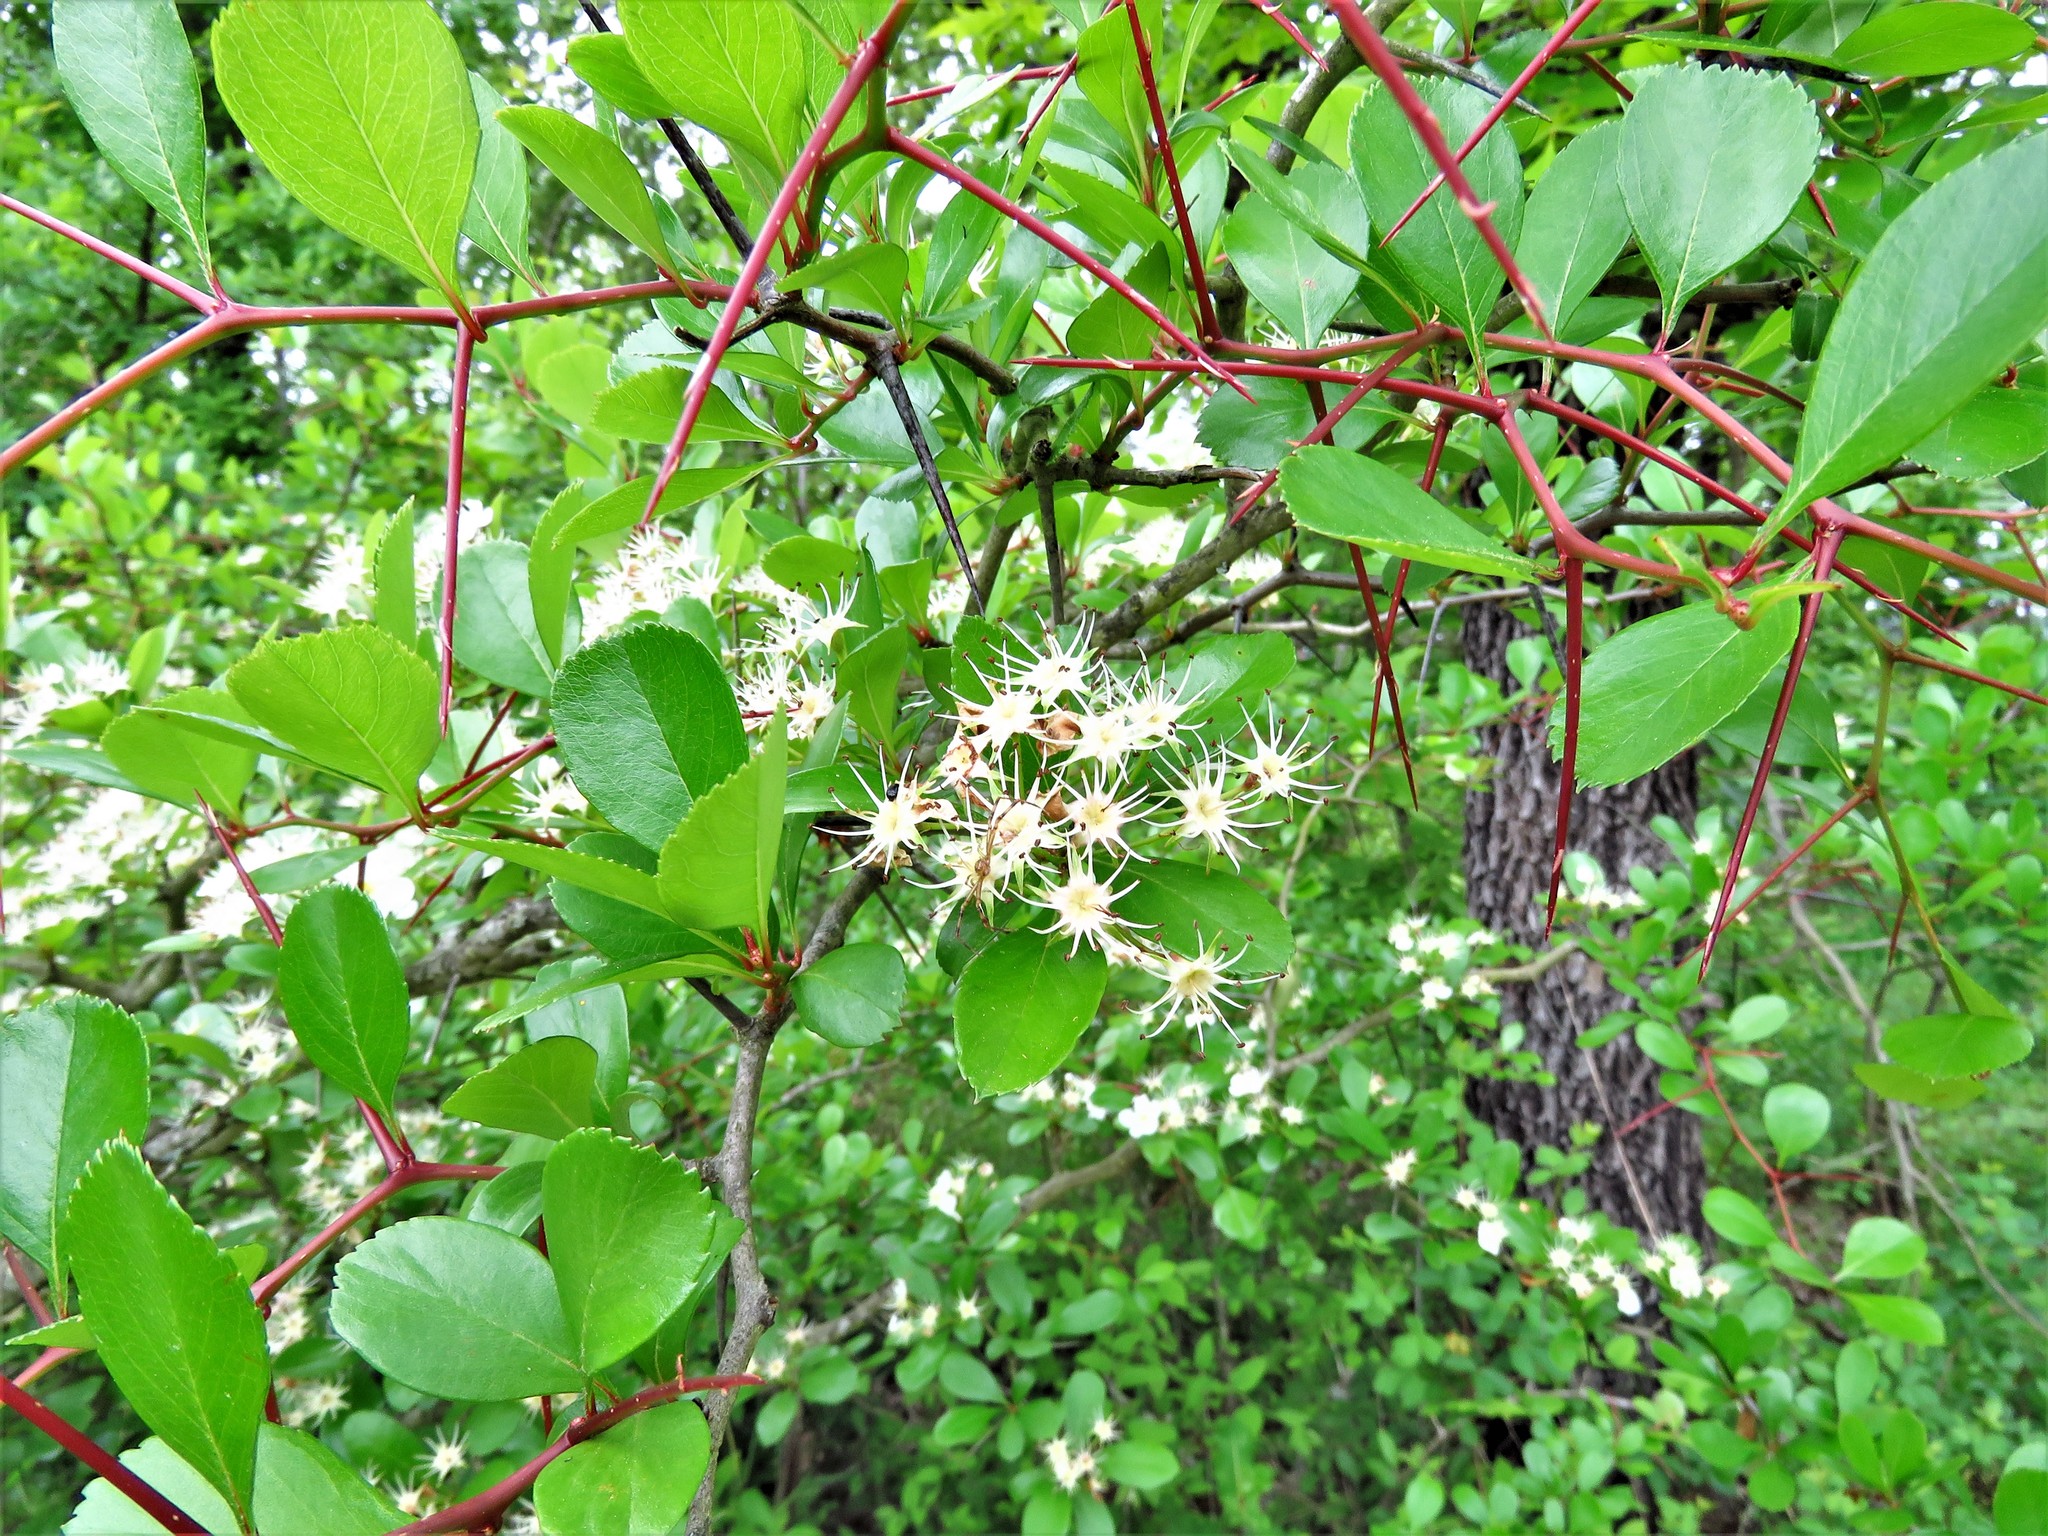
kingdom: Plantae
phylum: Tracheophyta
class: Magnoliopsida
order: Rosales
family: Rosaceae
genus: Crataegus
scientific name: Crataegus crus-galli
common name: Cockspurthorn
